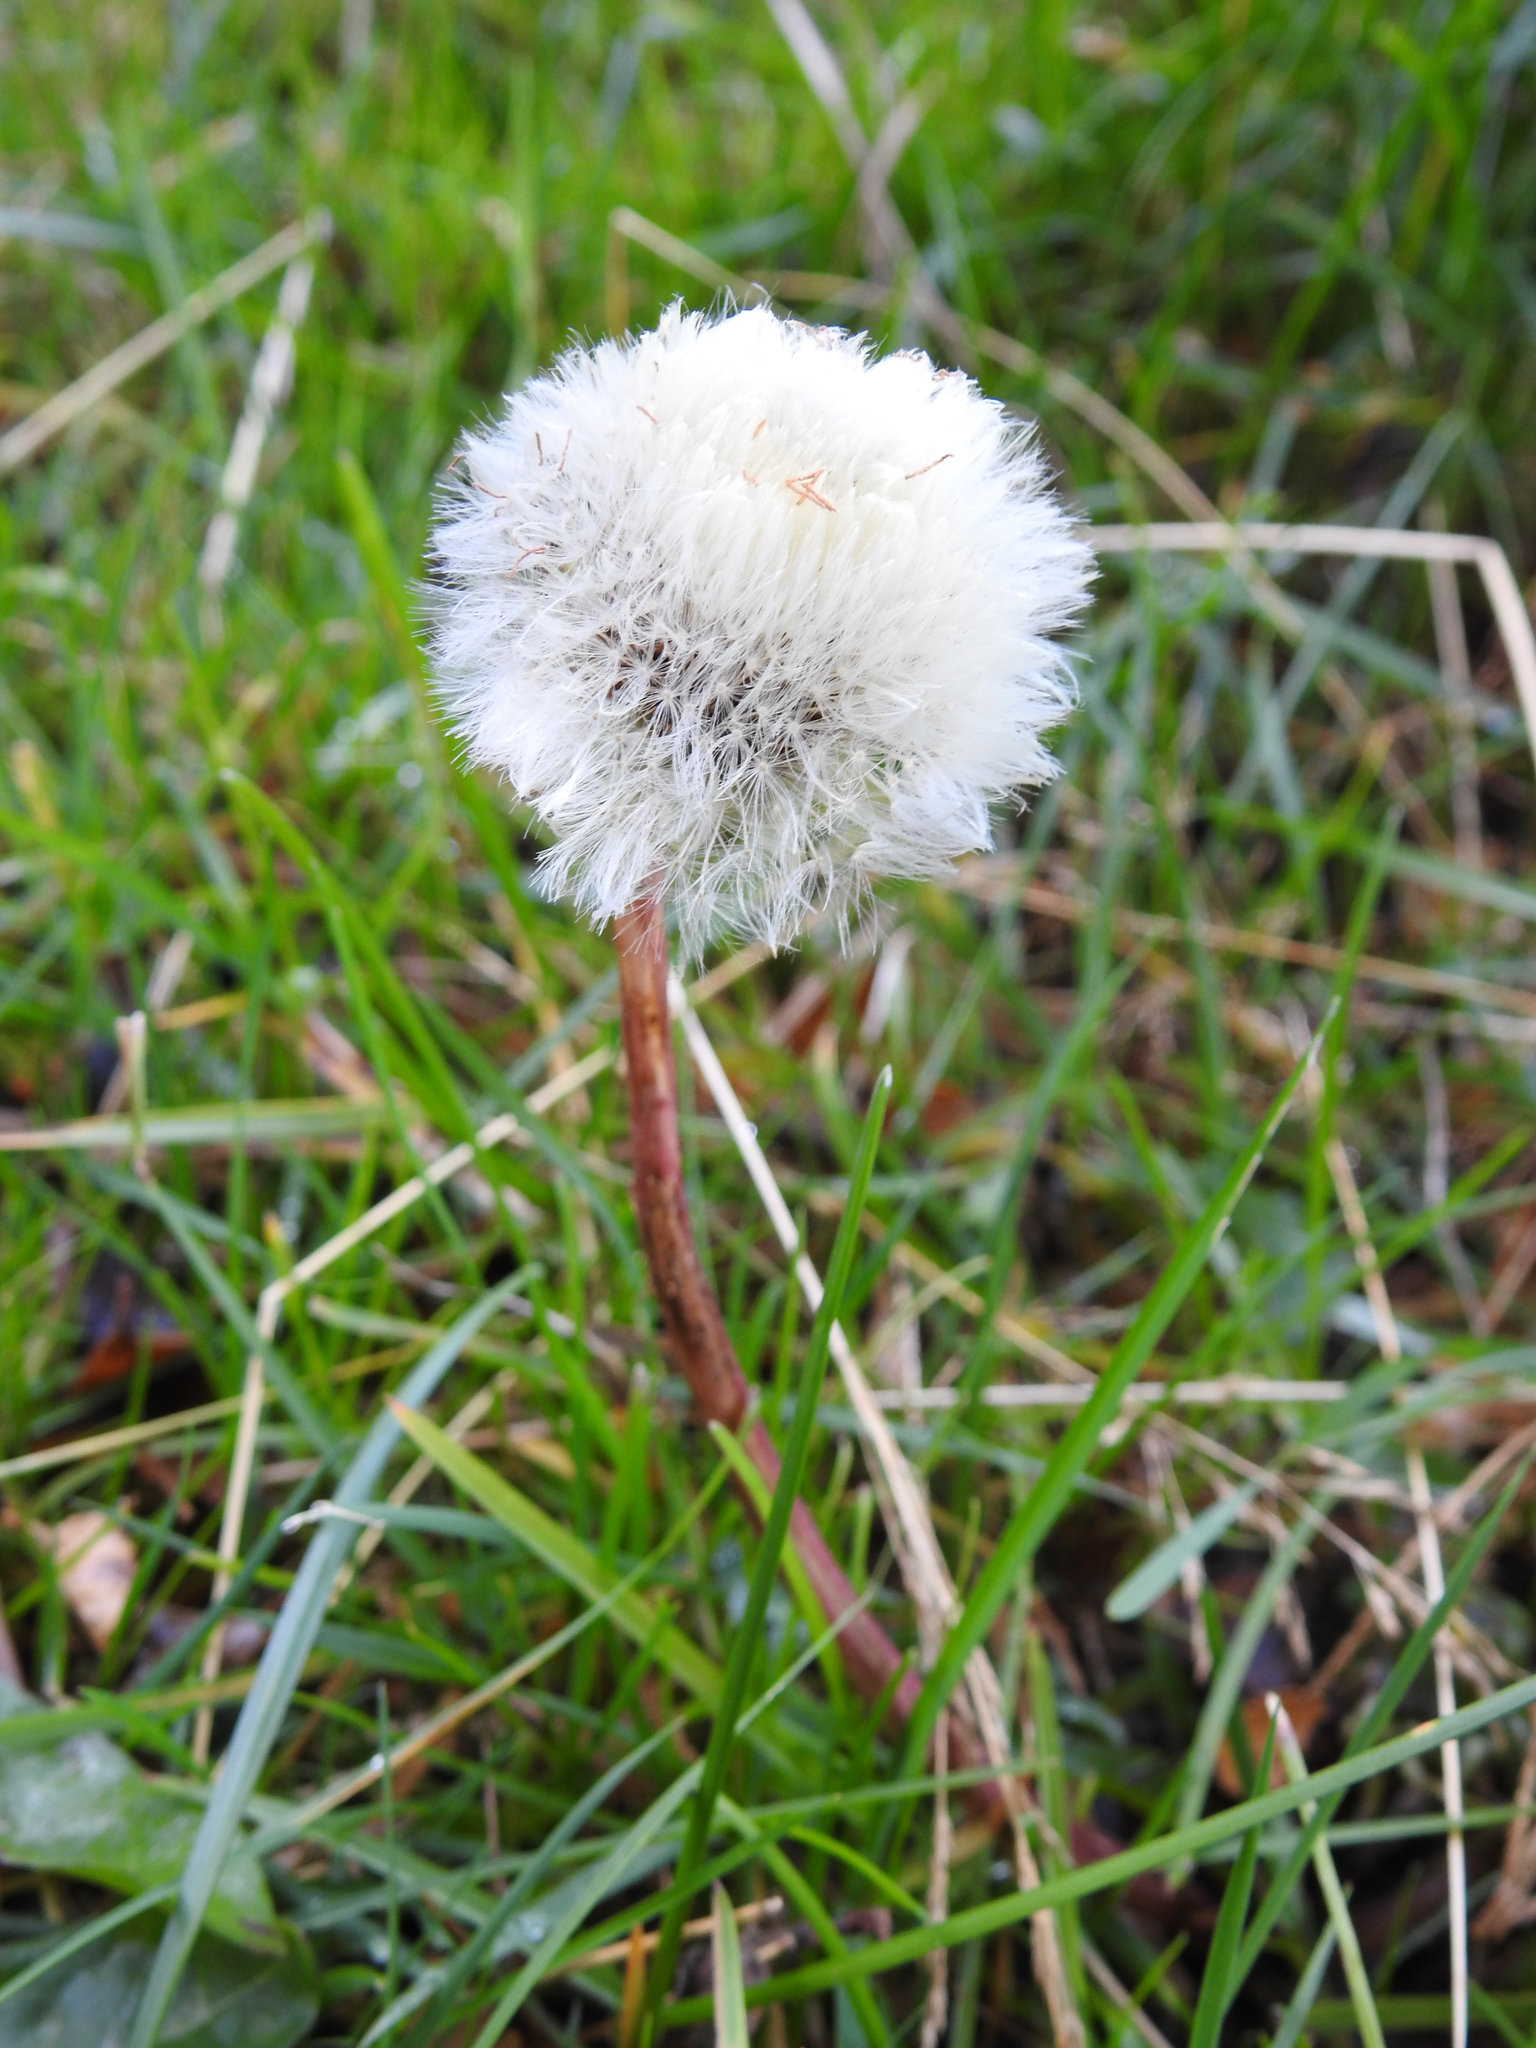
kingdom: Plantae
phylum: Tracheophyta
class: Magnoliopsida
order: Asterales
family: Asteraceae
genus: Taraxacum
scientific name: Taraxacum officinale
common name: Common dandelion
